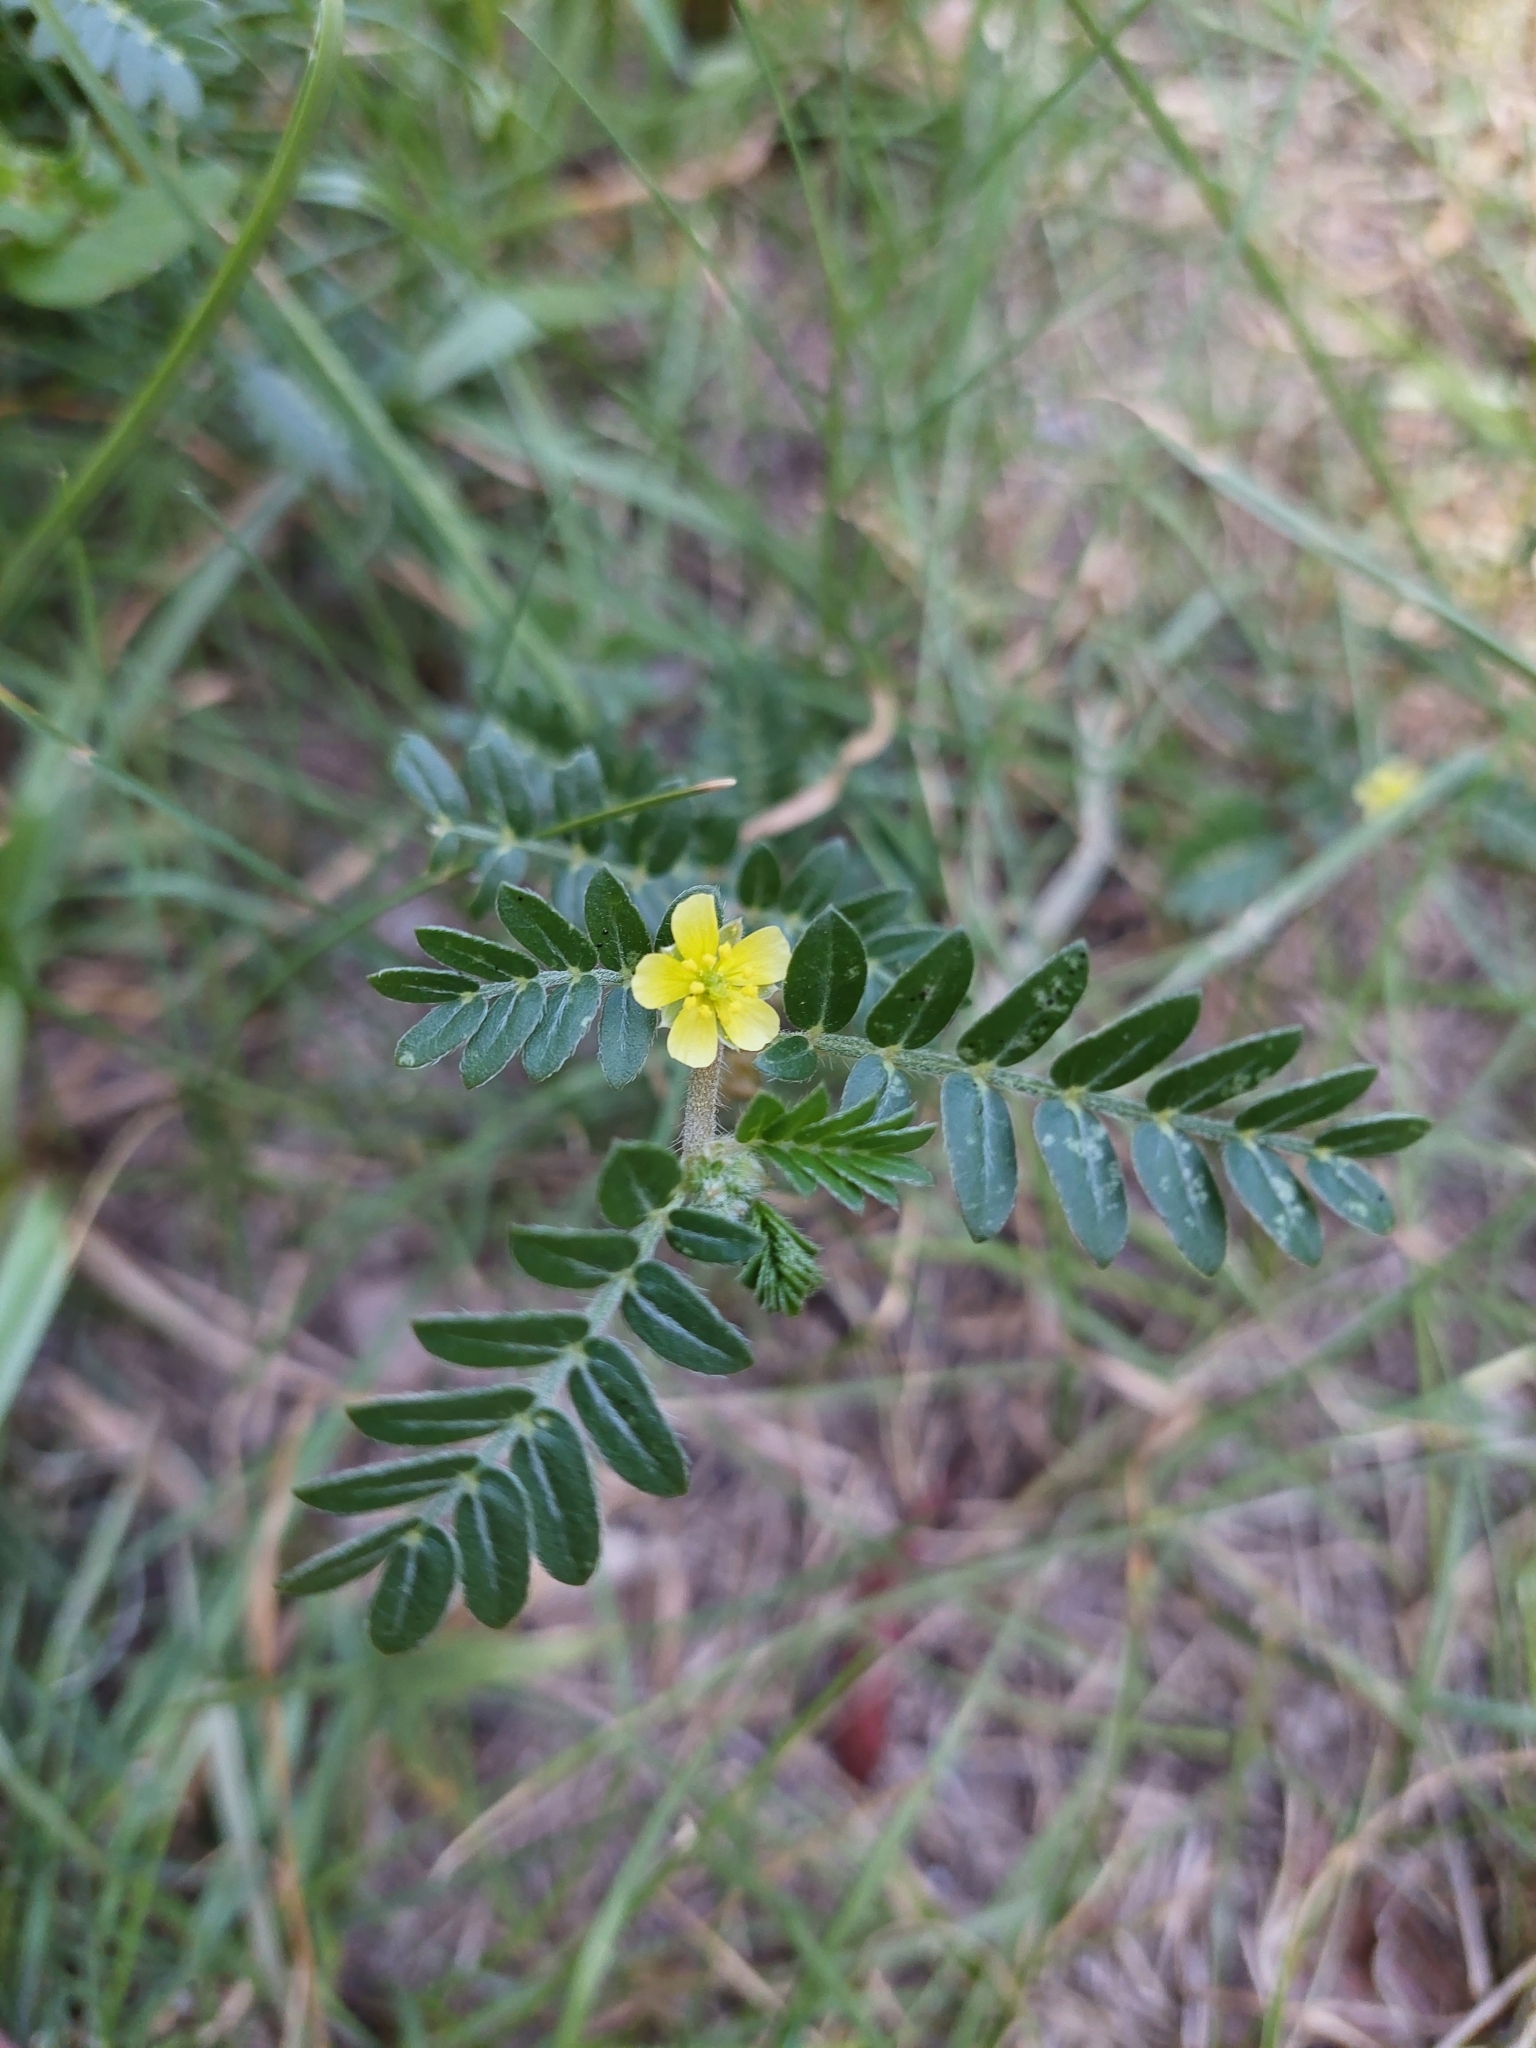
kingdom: Plantae
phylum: Tracheophyta
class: Magnoliopsida
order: Zygophyllales
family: Zygophyllaceae
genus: Tribulus
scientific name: Tribulus terrestris
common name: Puncturevine
